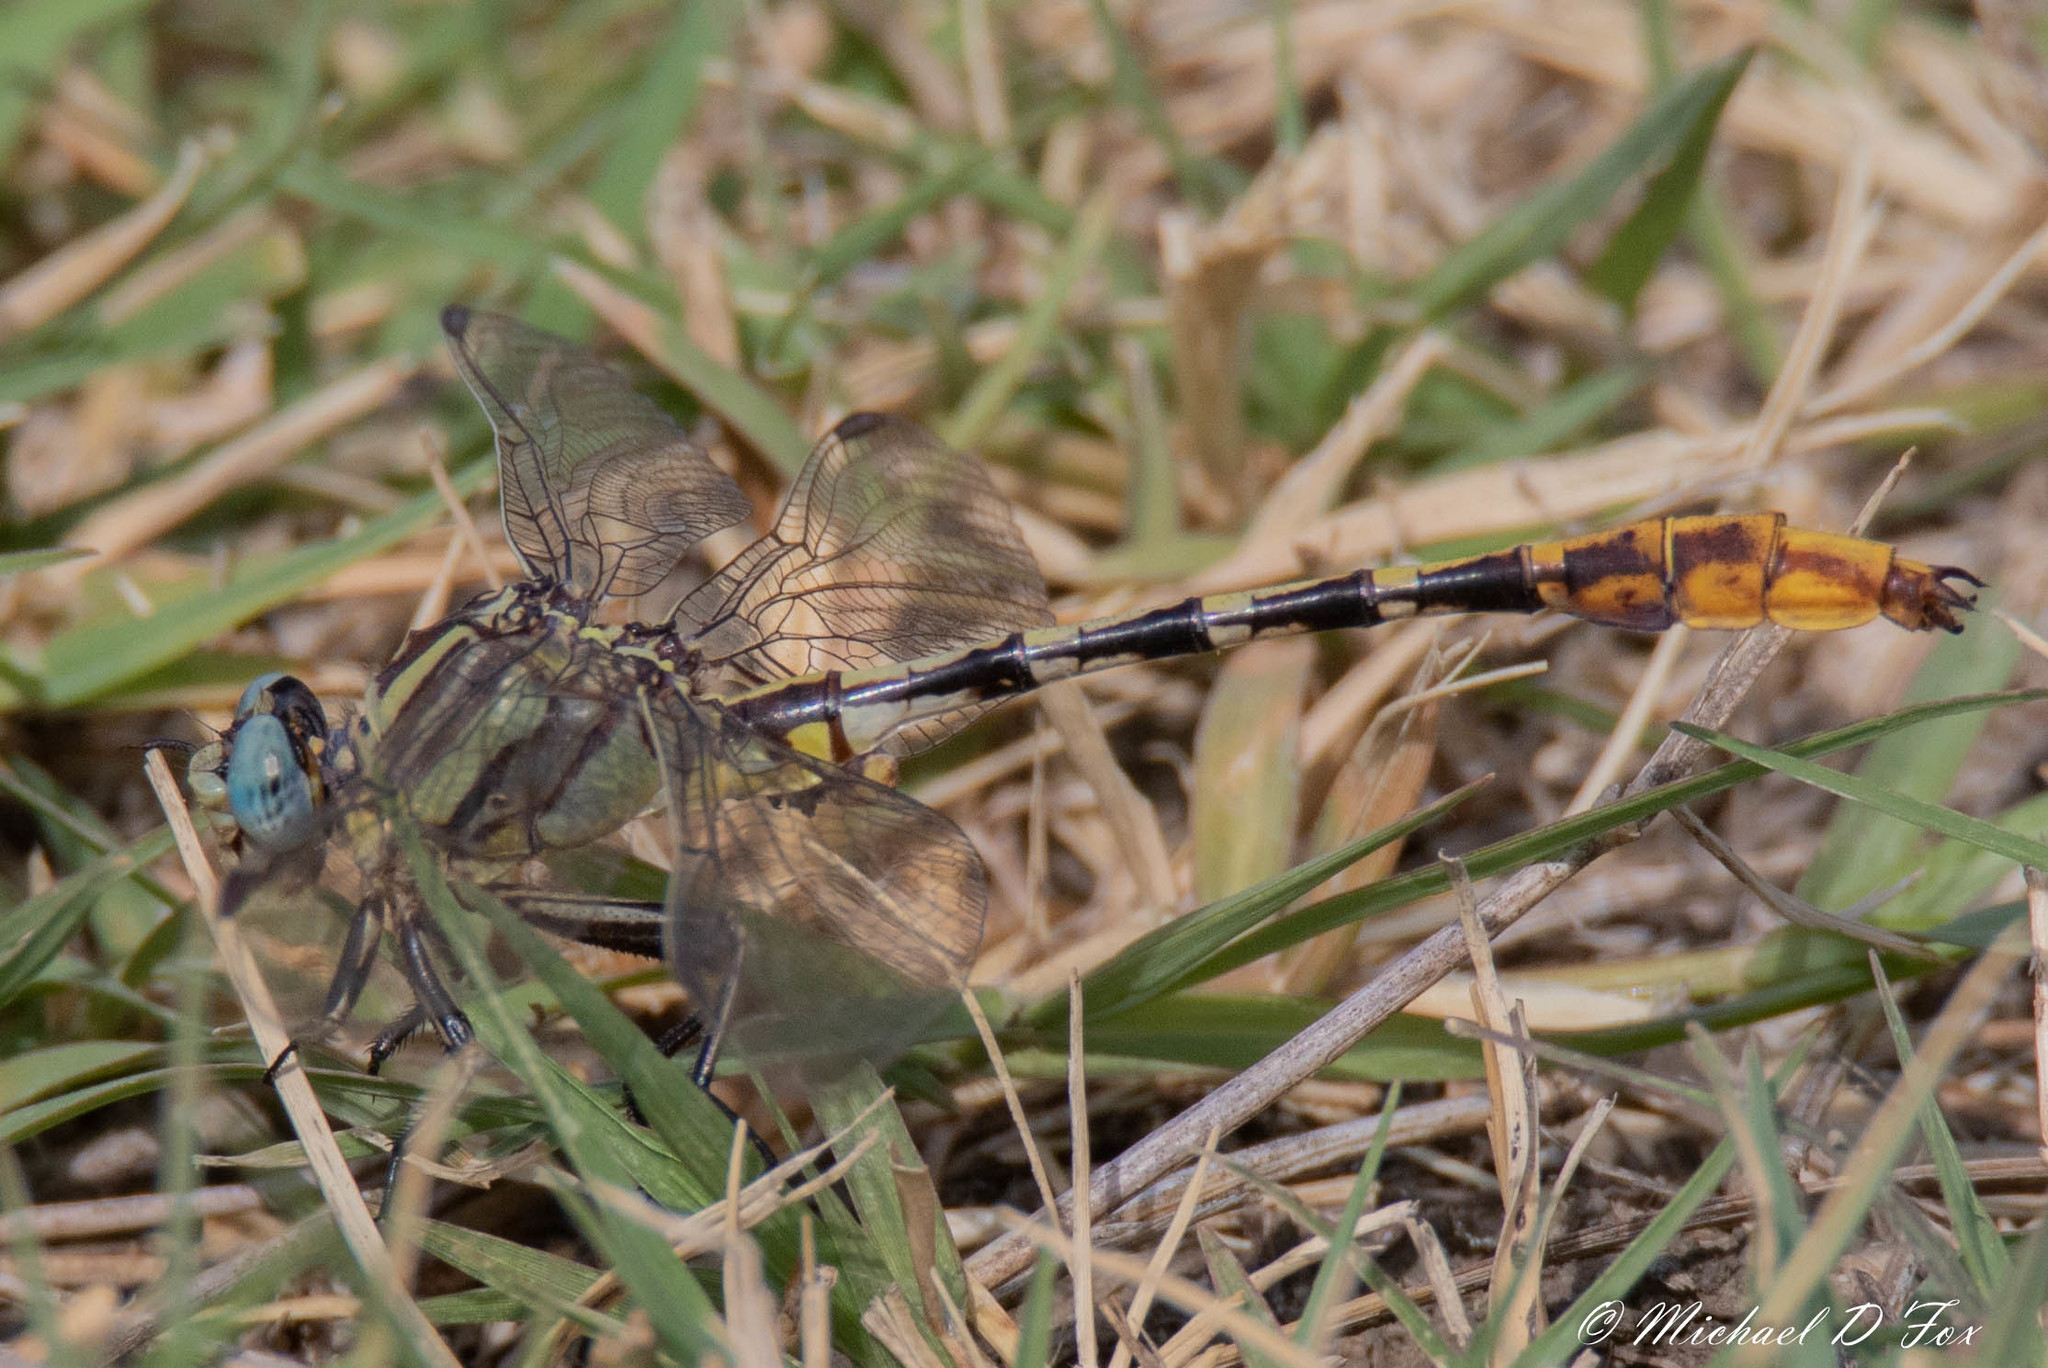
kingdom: Animalia
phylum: Arthropoda
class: Insecta
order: Odonata
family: Gomphidae
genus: Phanogomphus
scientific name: Phanogomphus militaris
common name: Sulphur-tipped clubtail
